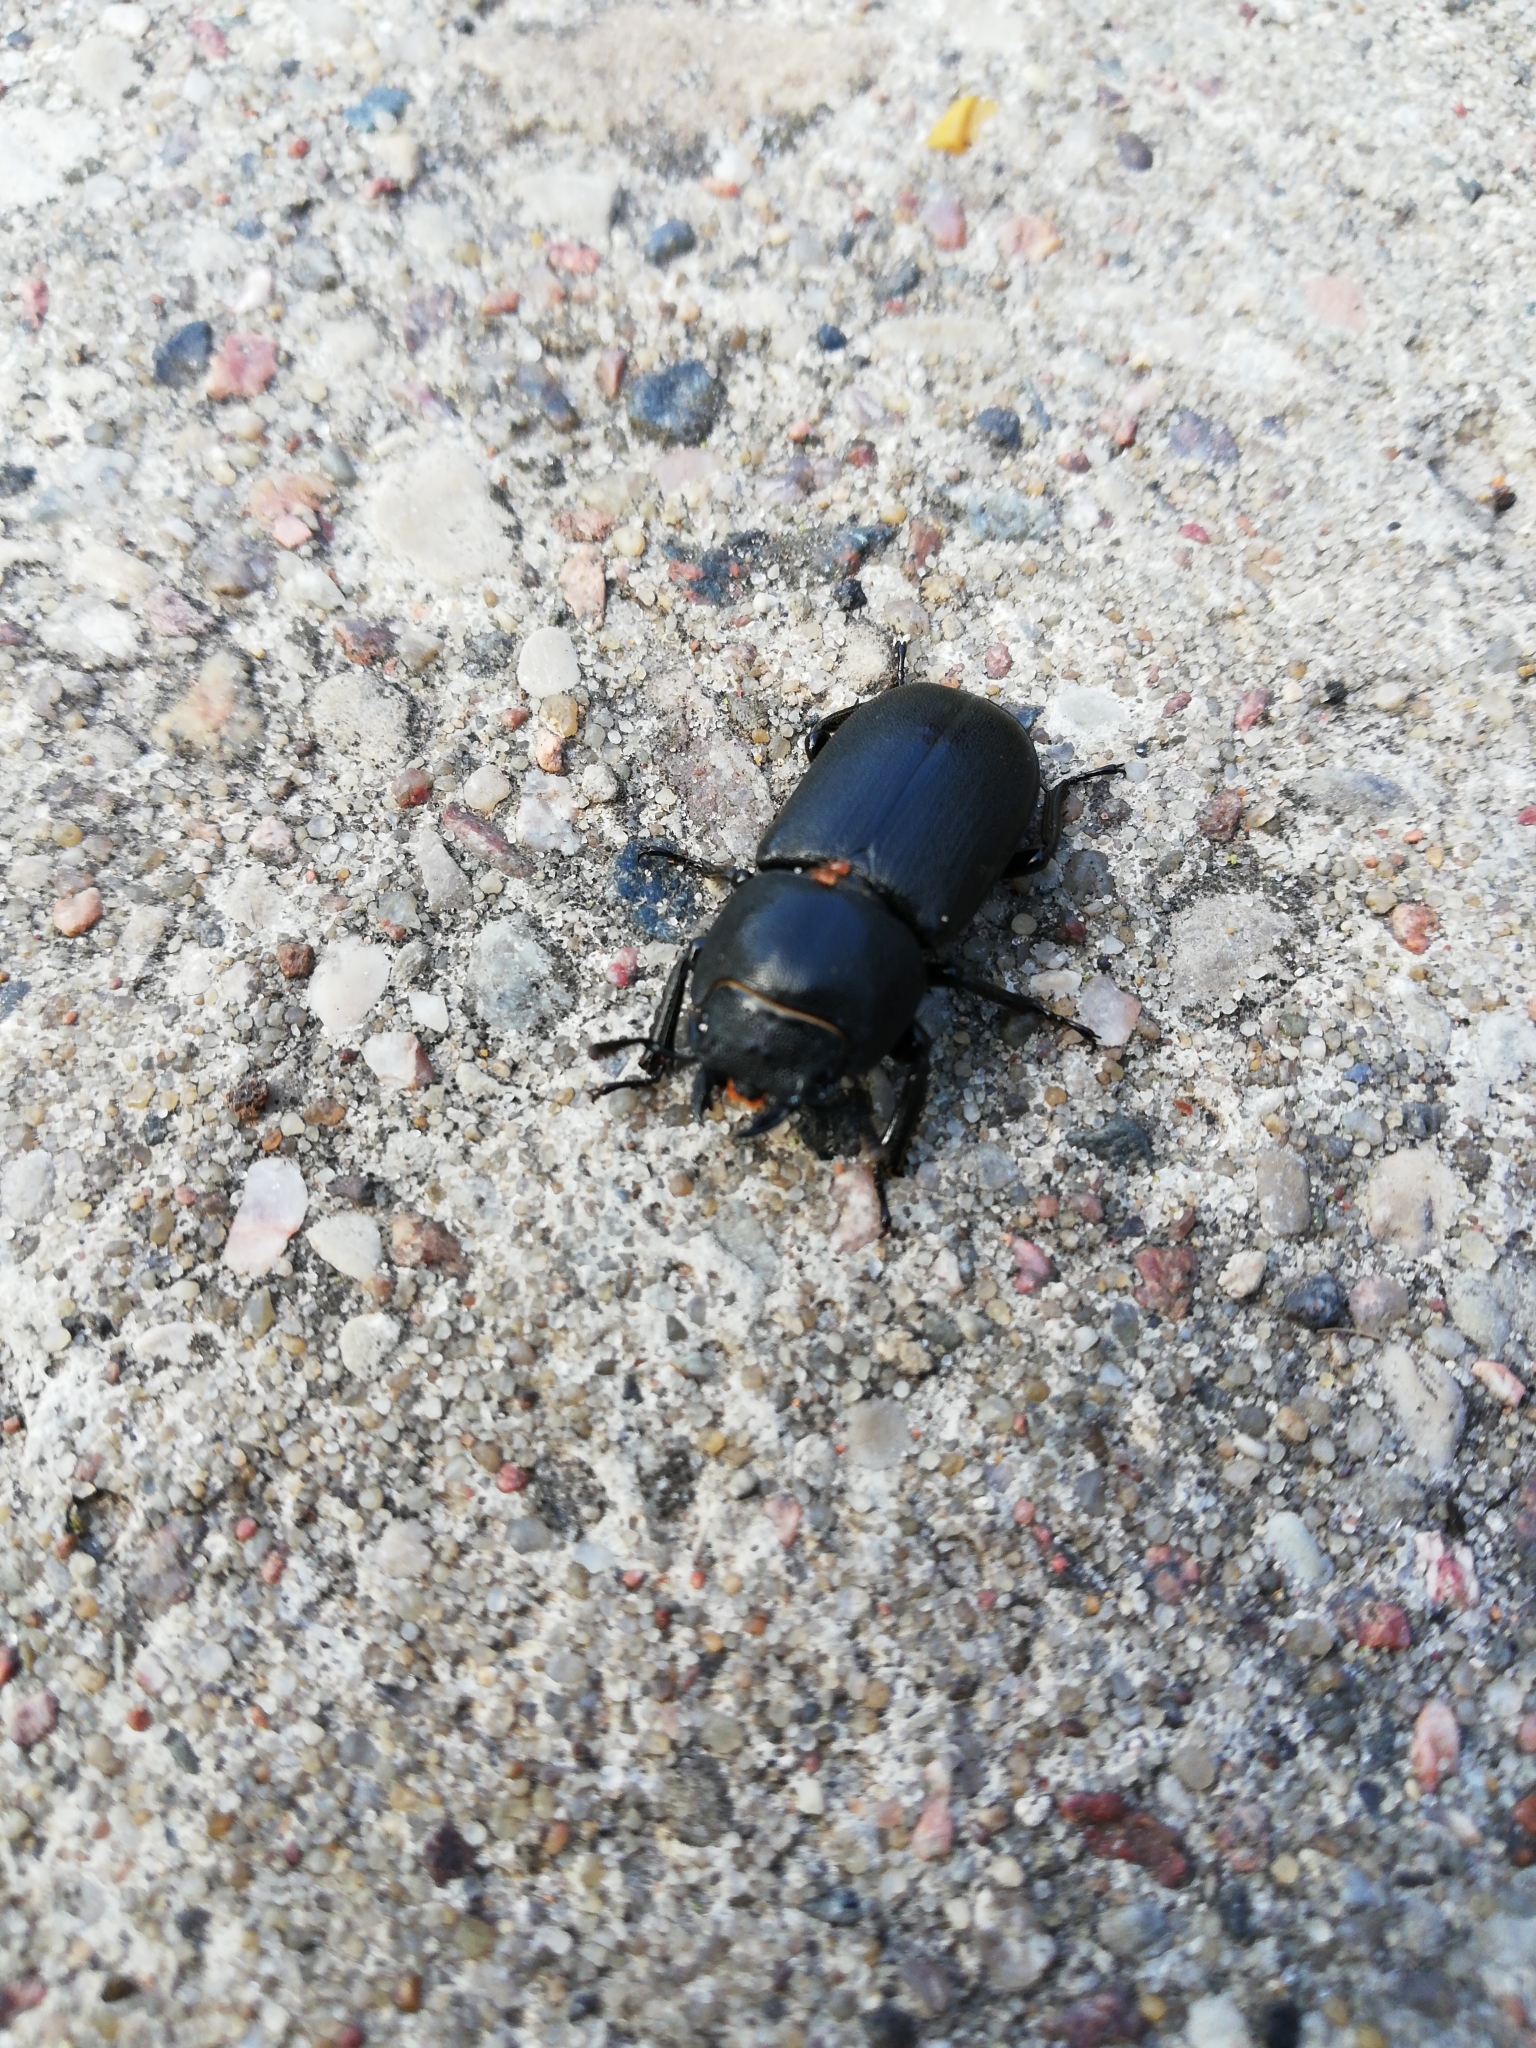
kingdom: Animalia
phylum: Arthropoda
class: Insecta
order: Coleoptera
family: Lucanidae
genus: Dorcus
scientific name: Dorcus parallelipipedus
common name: Lesser stag beetle
